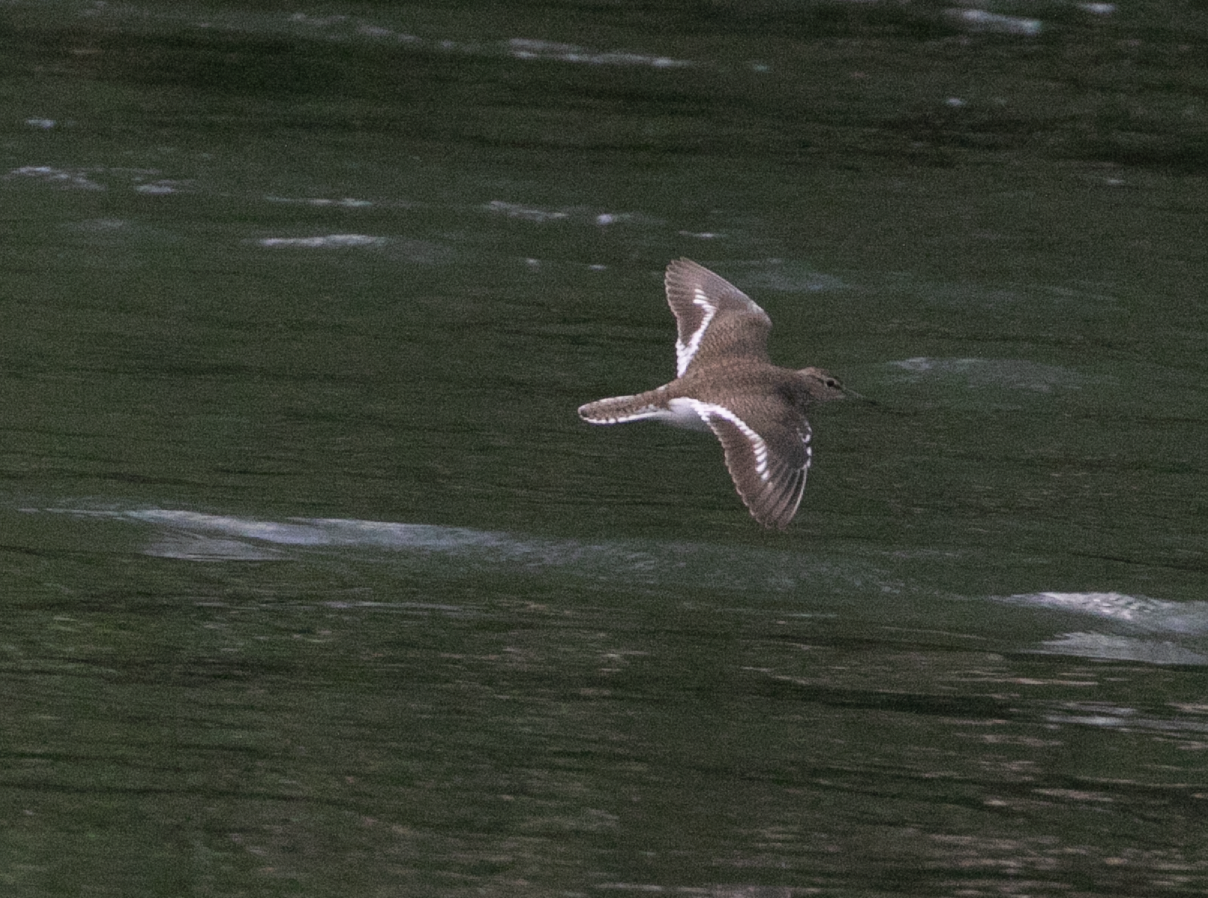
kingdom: Animalia
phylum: Chordata
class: Aves
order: Charadriiformes
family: Scolopacidae
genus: Actitis
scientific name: Actitis hypoleucos
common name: Common sandpiper
